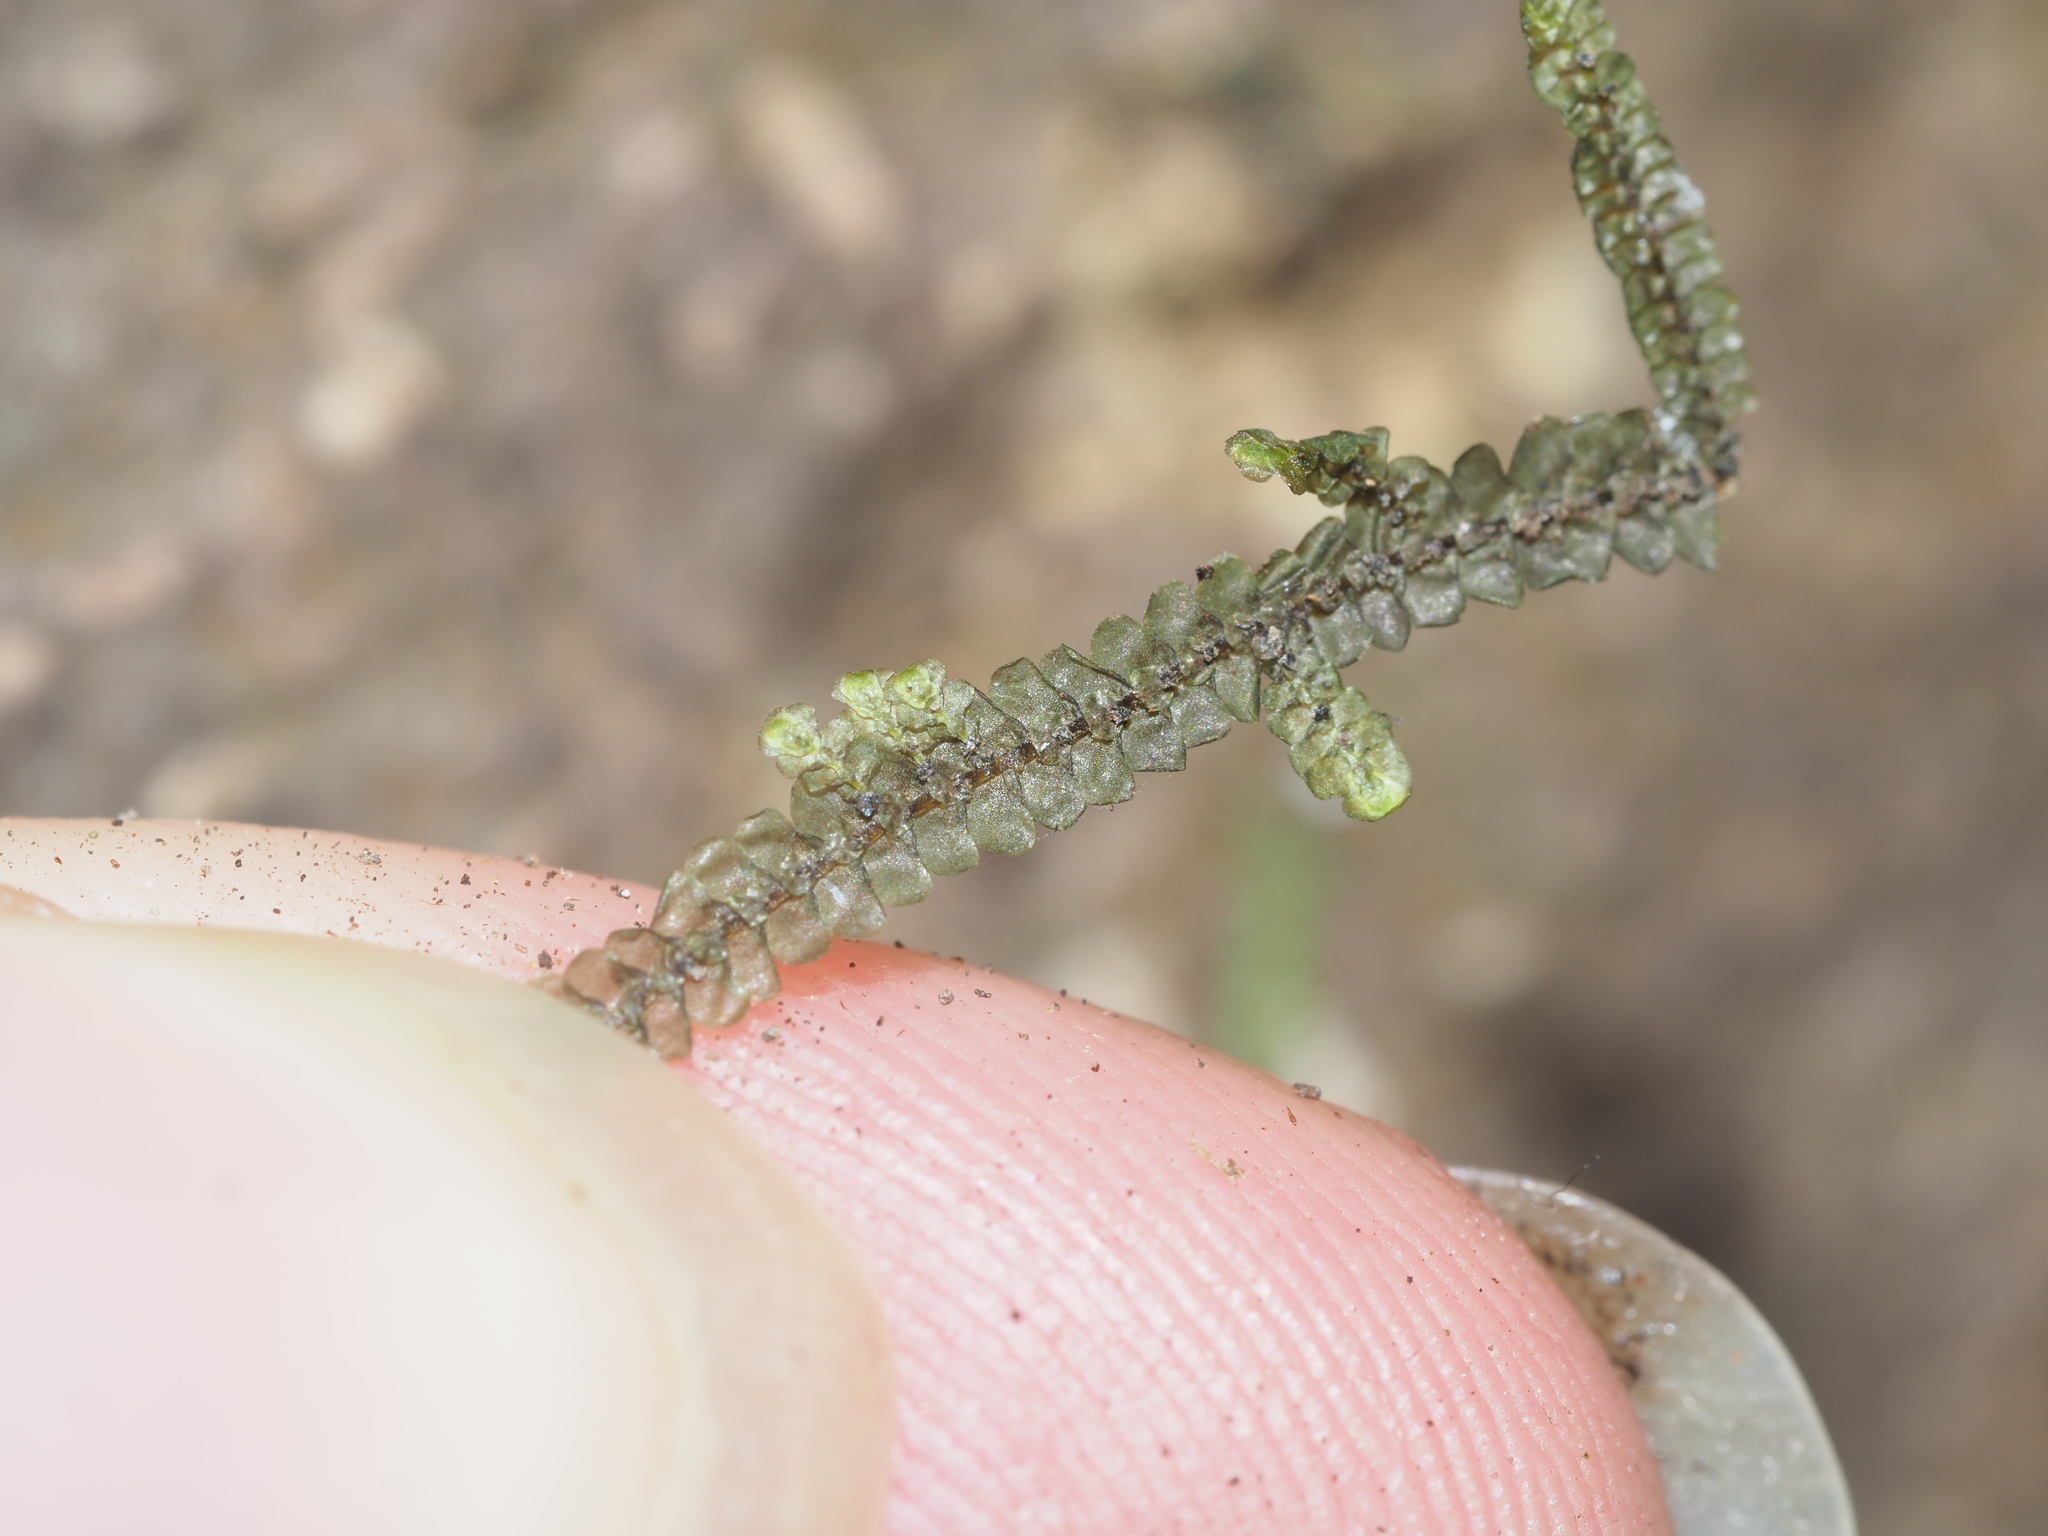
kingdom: Plantae
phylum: Marchantiophyta
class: Jungermanniopsida
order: Porellales
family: Lejeuneaceae
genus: Acrolejeunea
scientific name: Acrolejeunea sandvicensis
